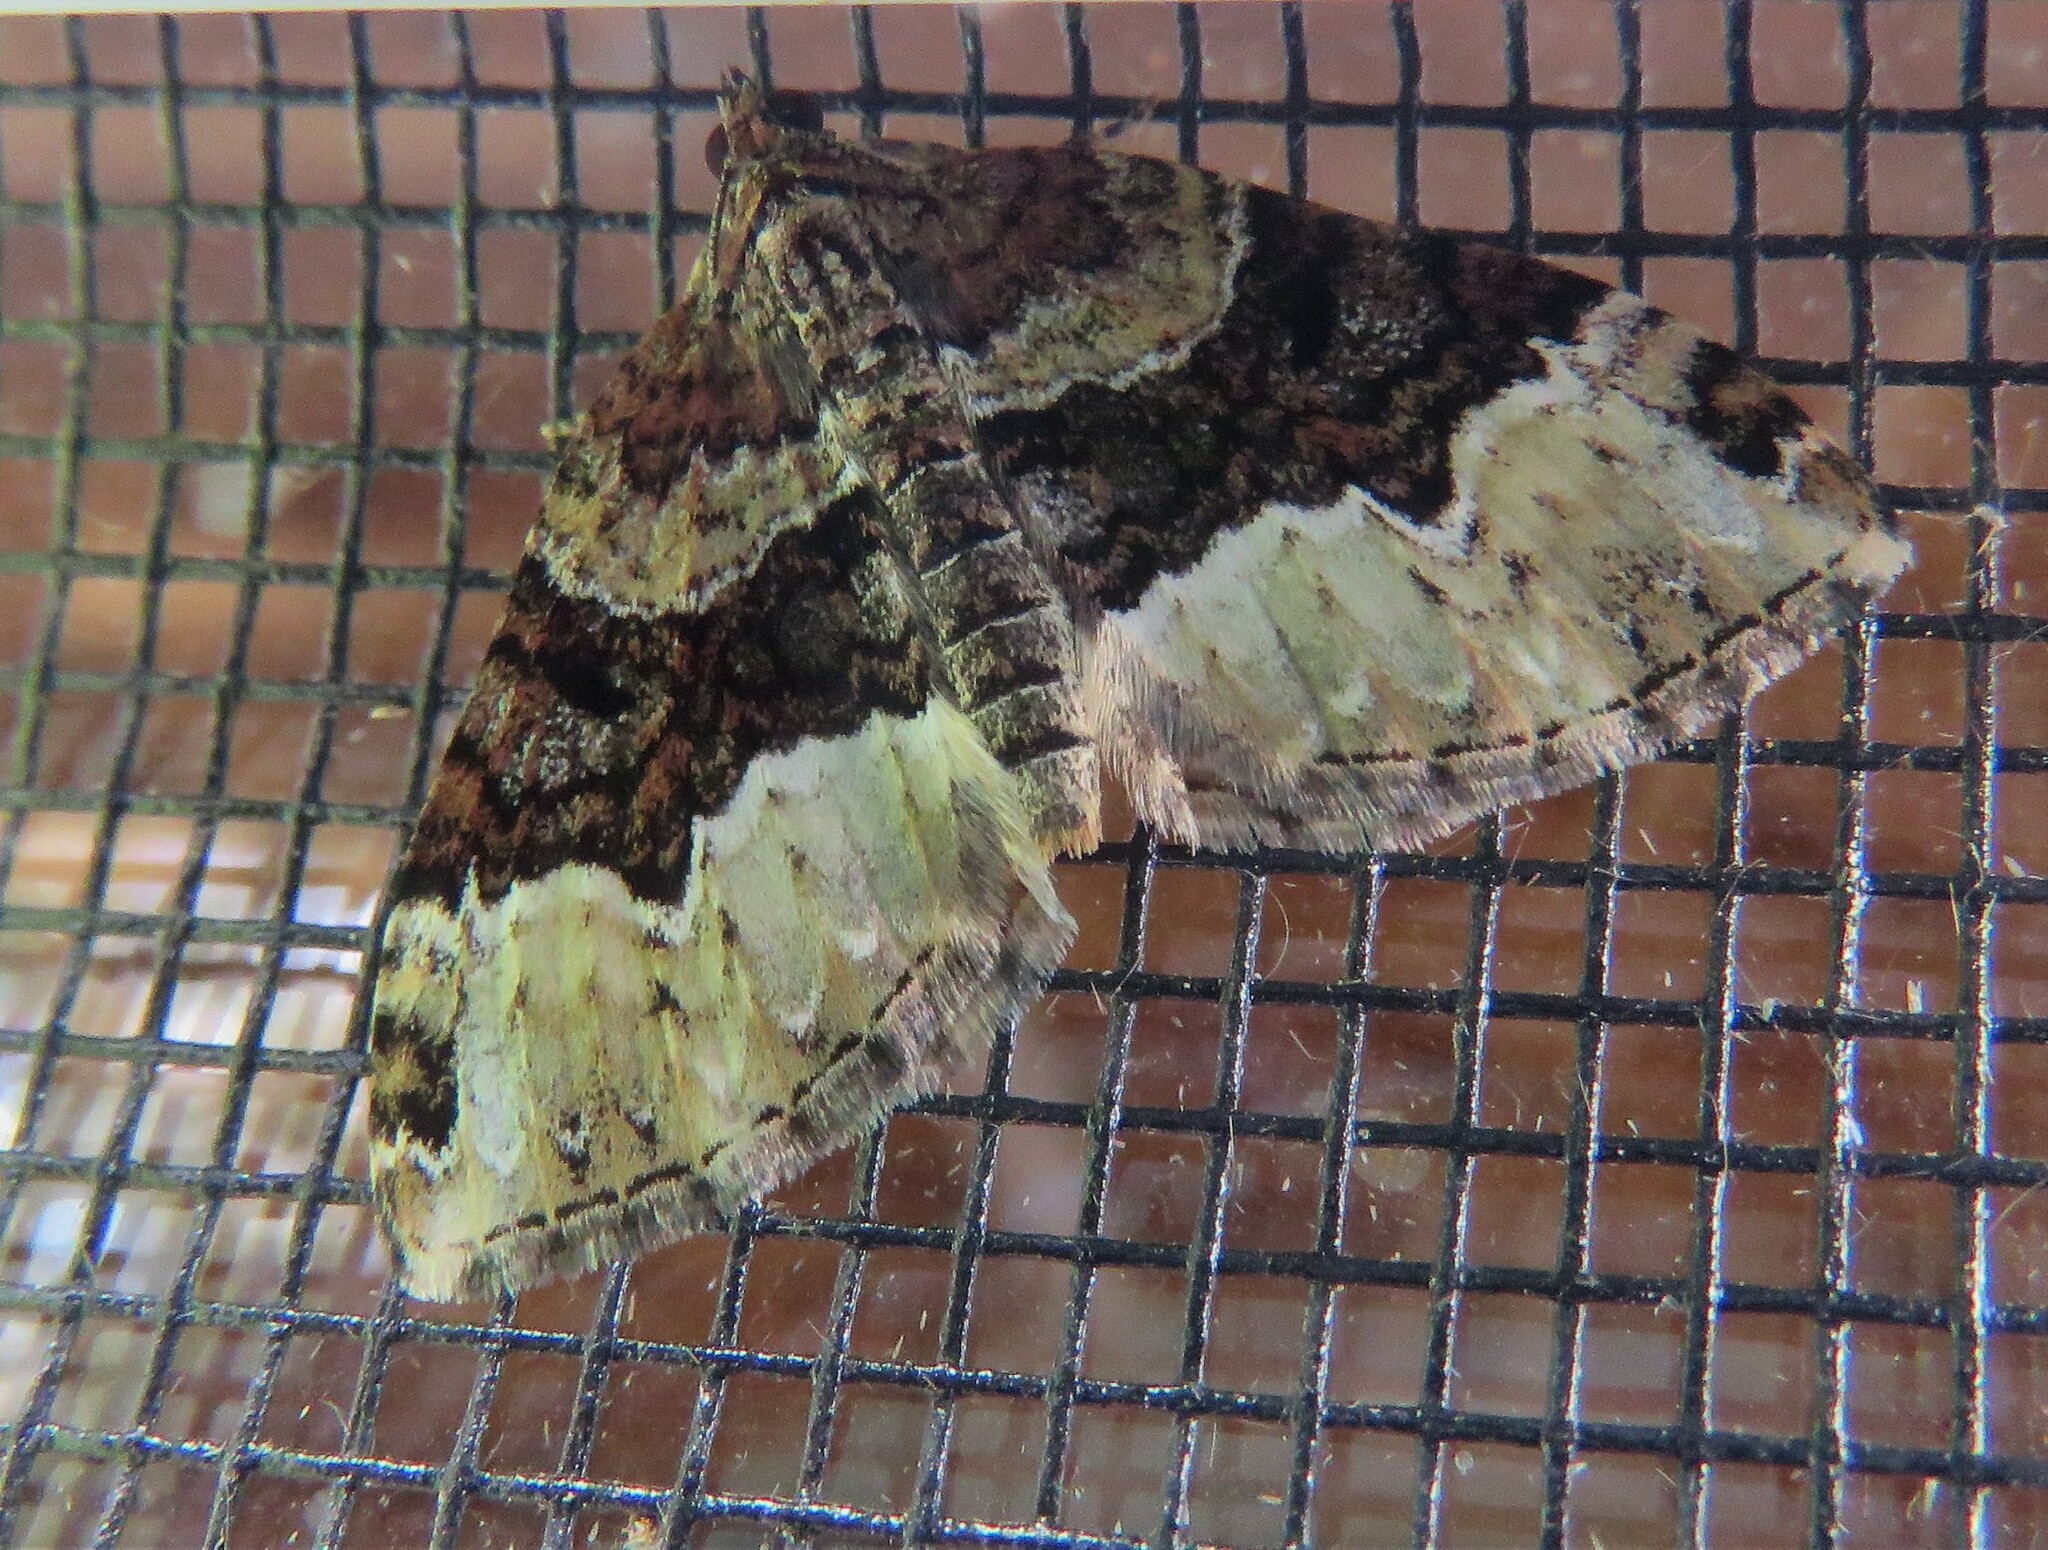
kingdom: Animalia
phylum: Arthropoda
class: Insecta
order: Lepidoptera
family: Geometridae
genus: Euphyia
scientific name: Euphyia intermediata
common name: Sharp-angled carpet
